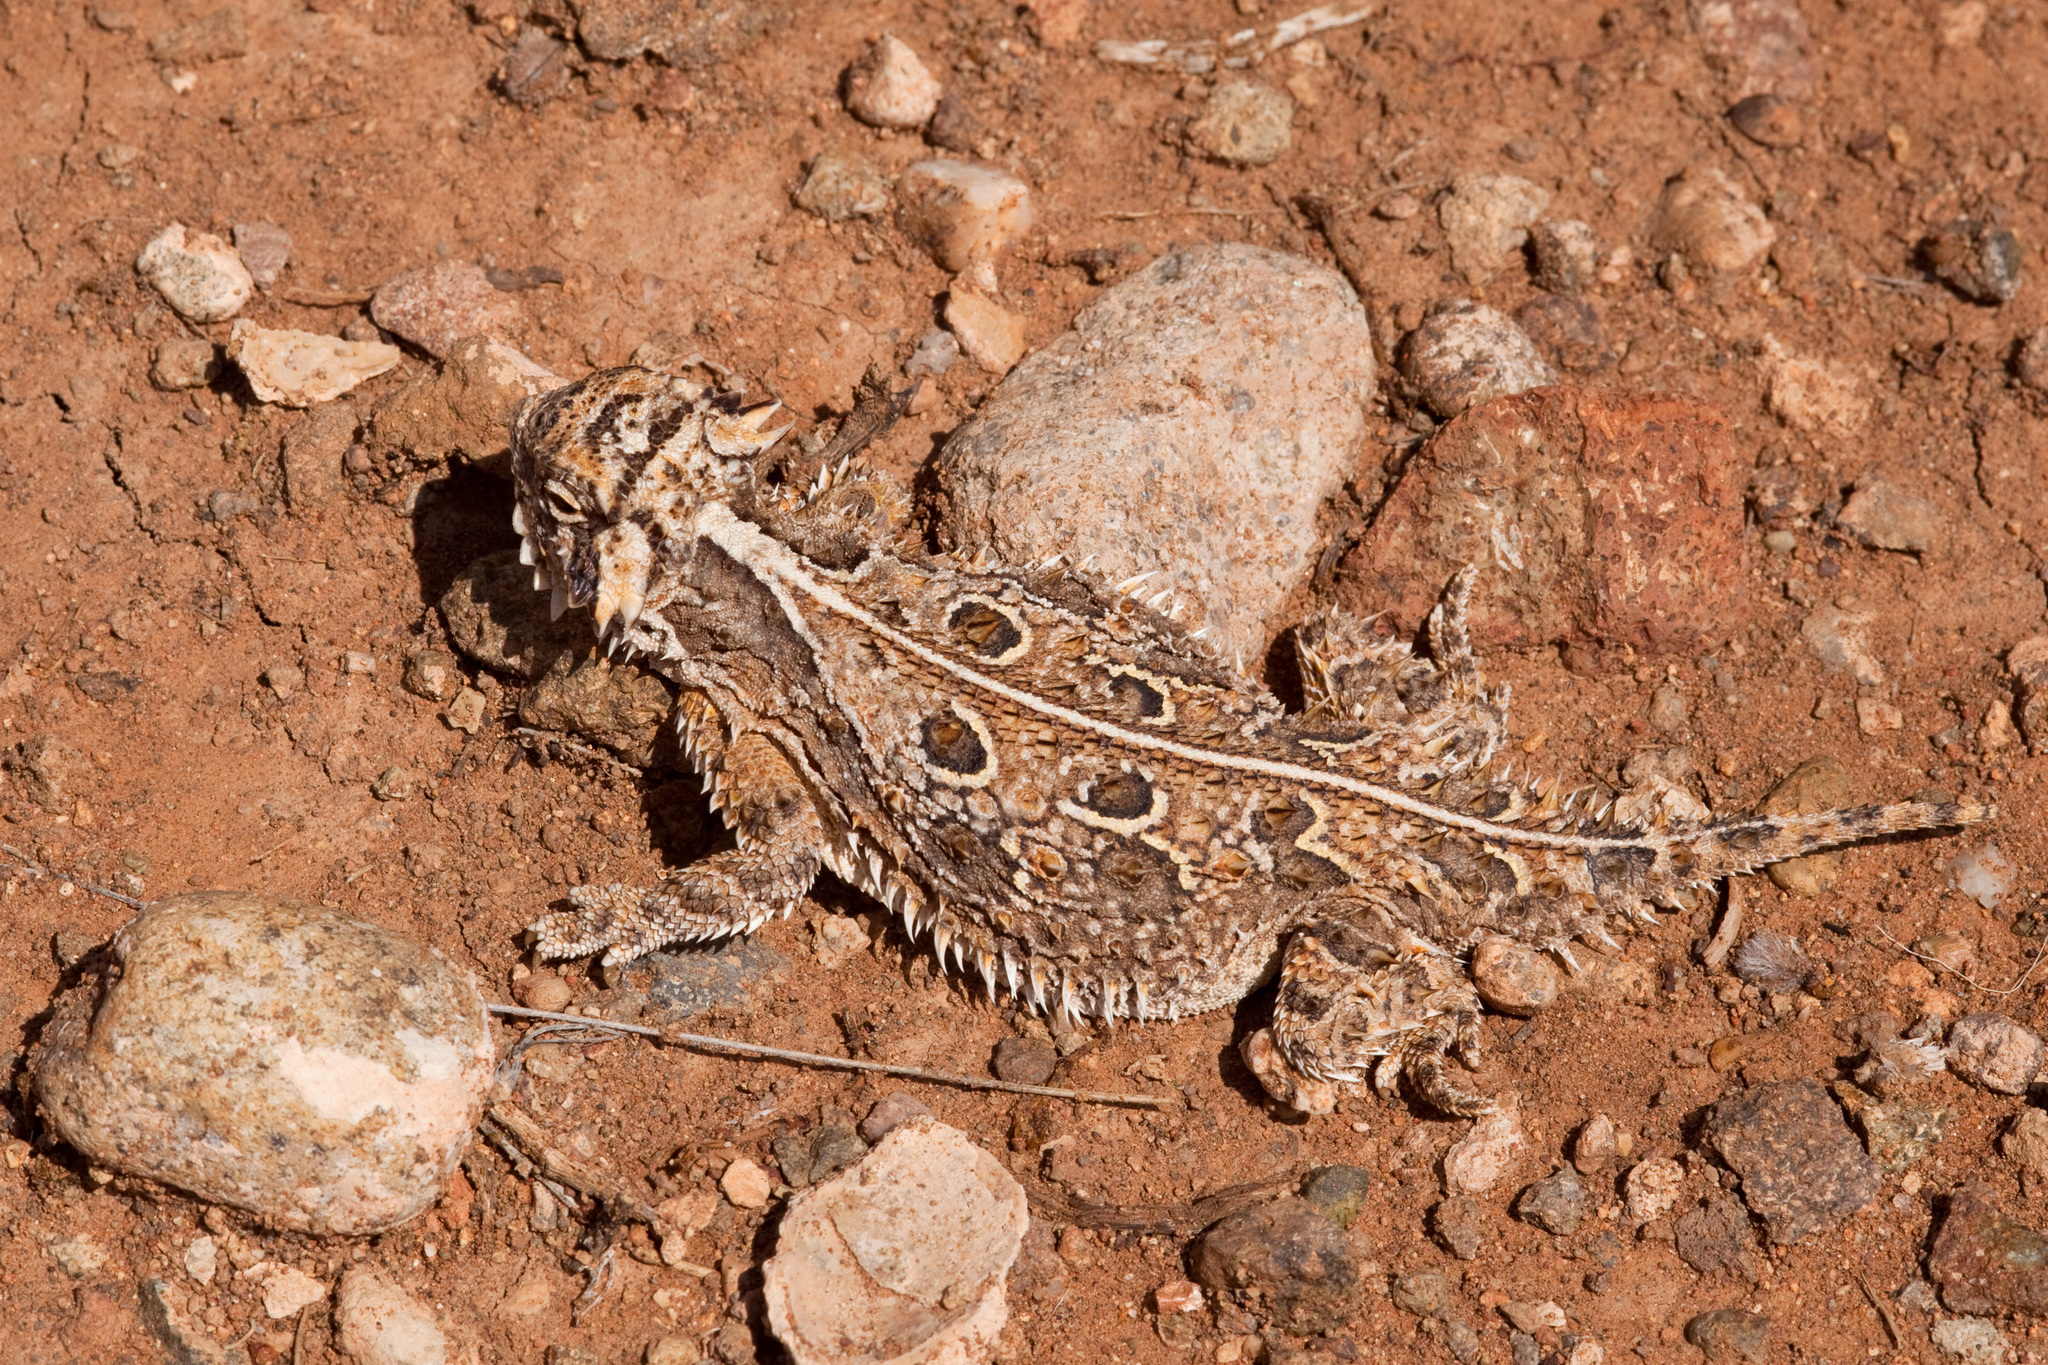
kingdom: Animalia
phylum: Chordata
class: Squamata
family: Phrynosomatidae
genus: Phrynosoma
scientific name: Phrynosoma cornutum
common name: Texas horned lizard
